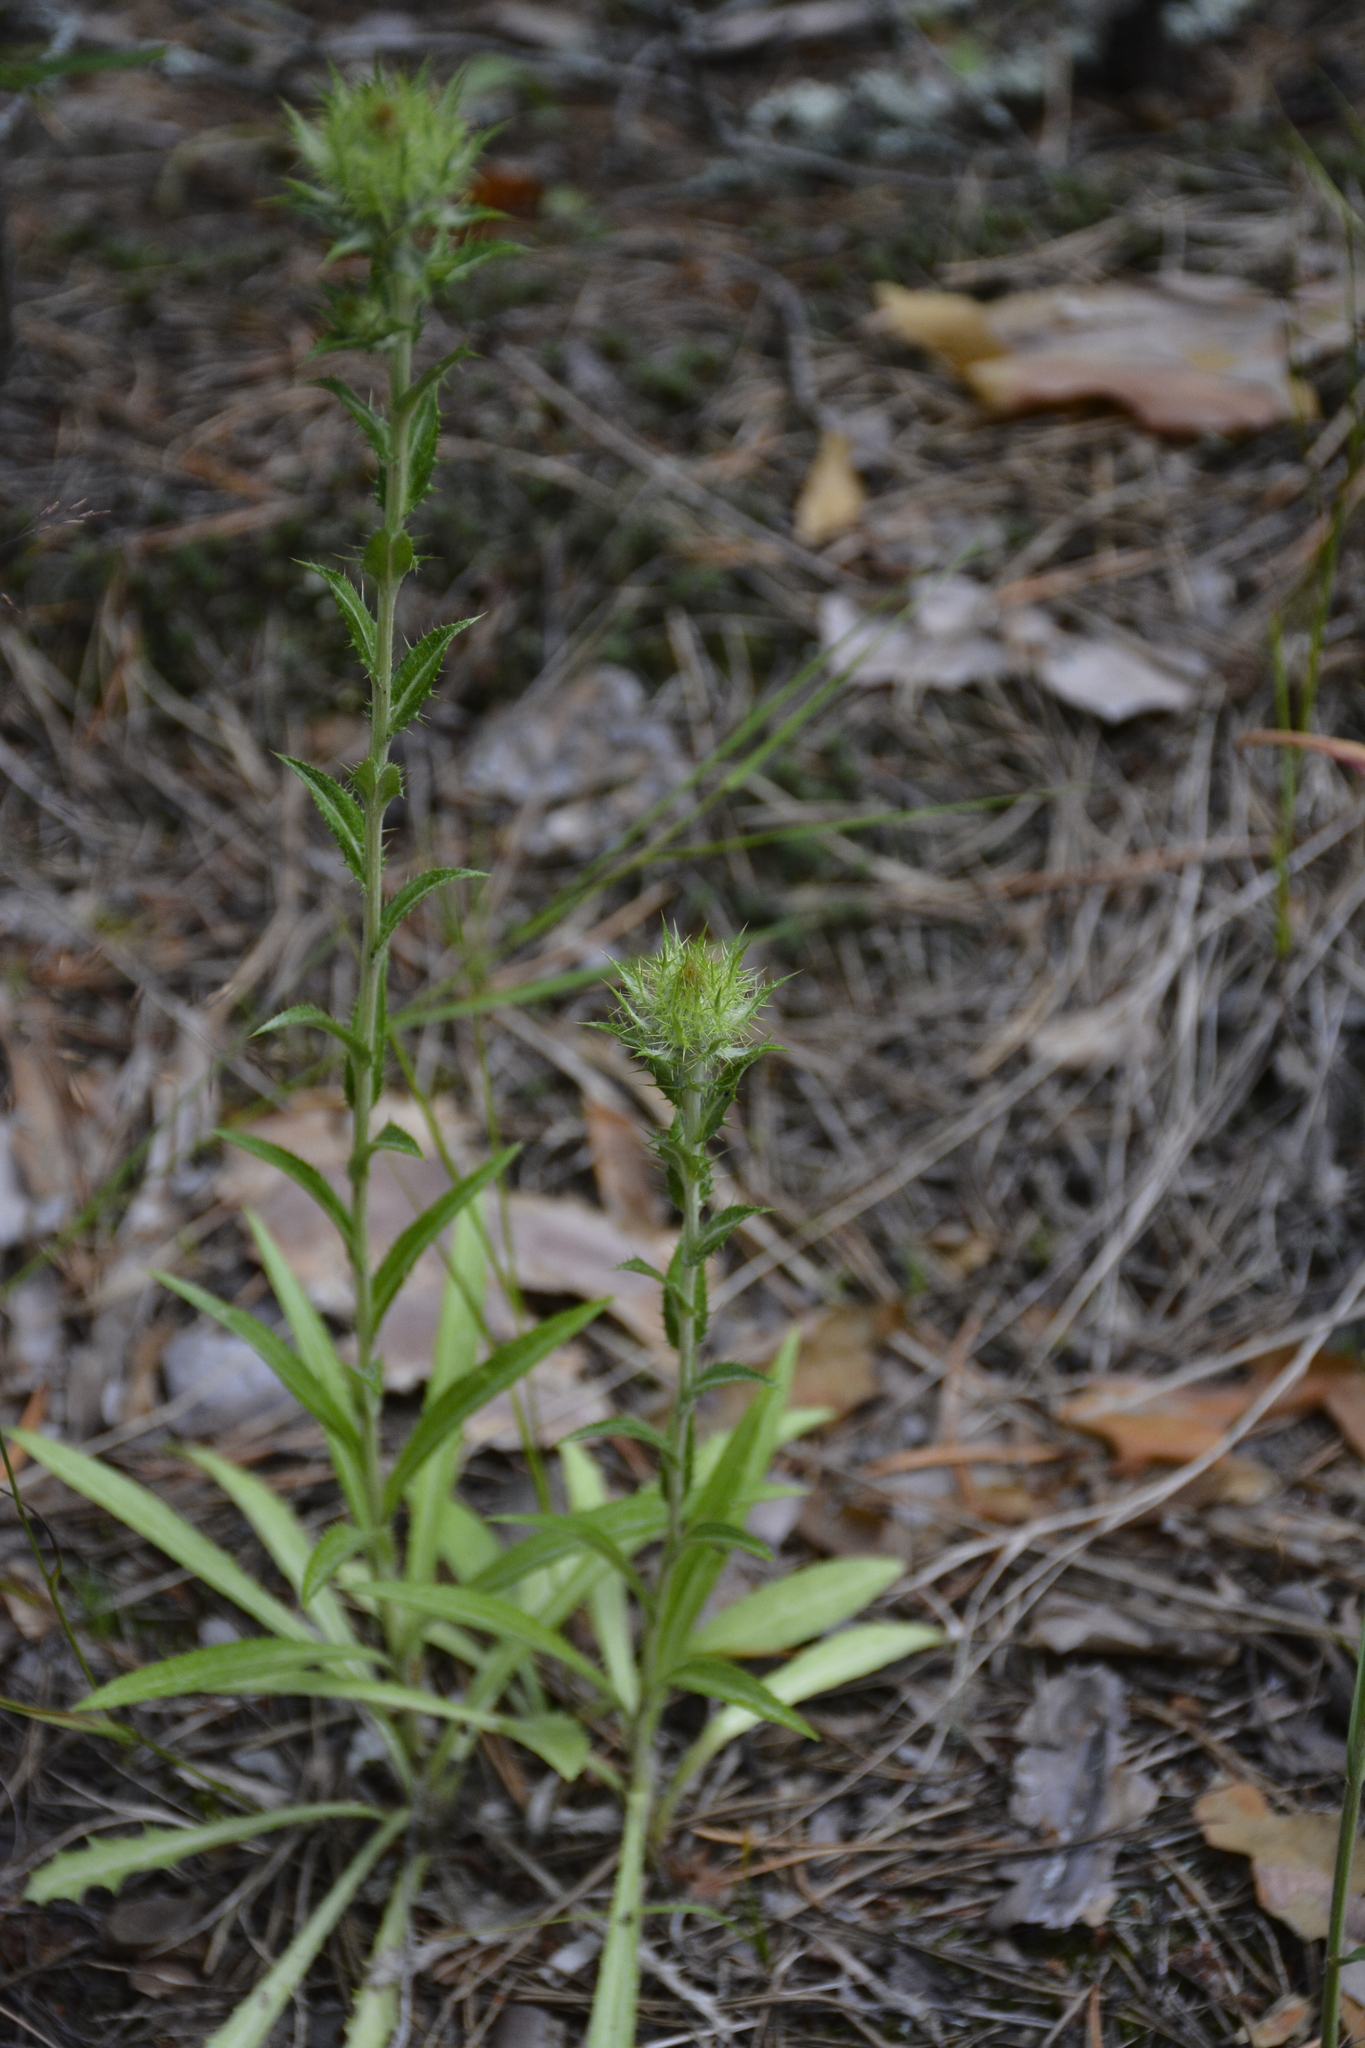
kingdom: Plantae
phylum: Tracheophyta
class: Magnoliopsida
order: Asterales
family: Asteraceae
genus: Carlina
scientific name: Carlina biebersteinii
